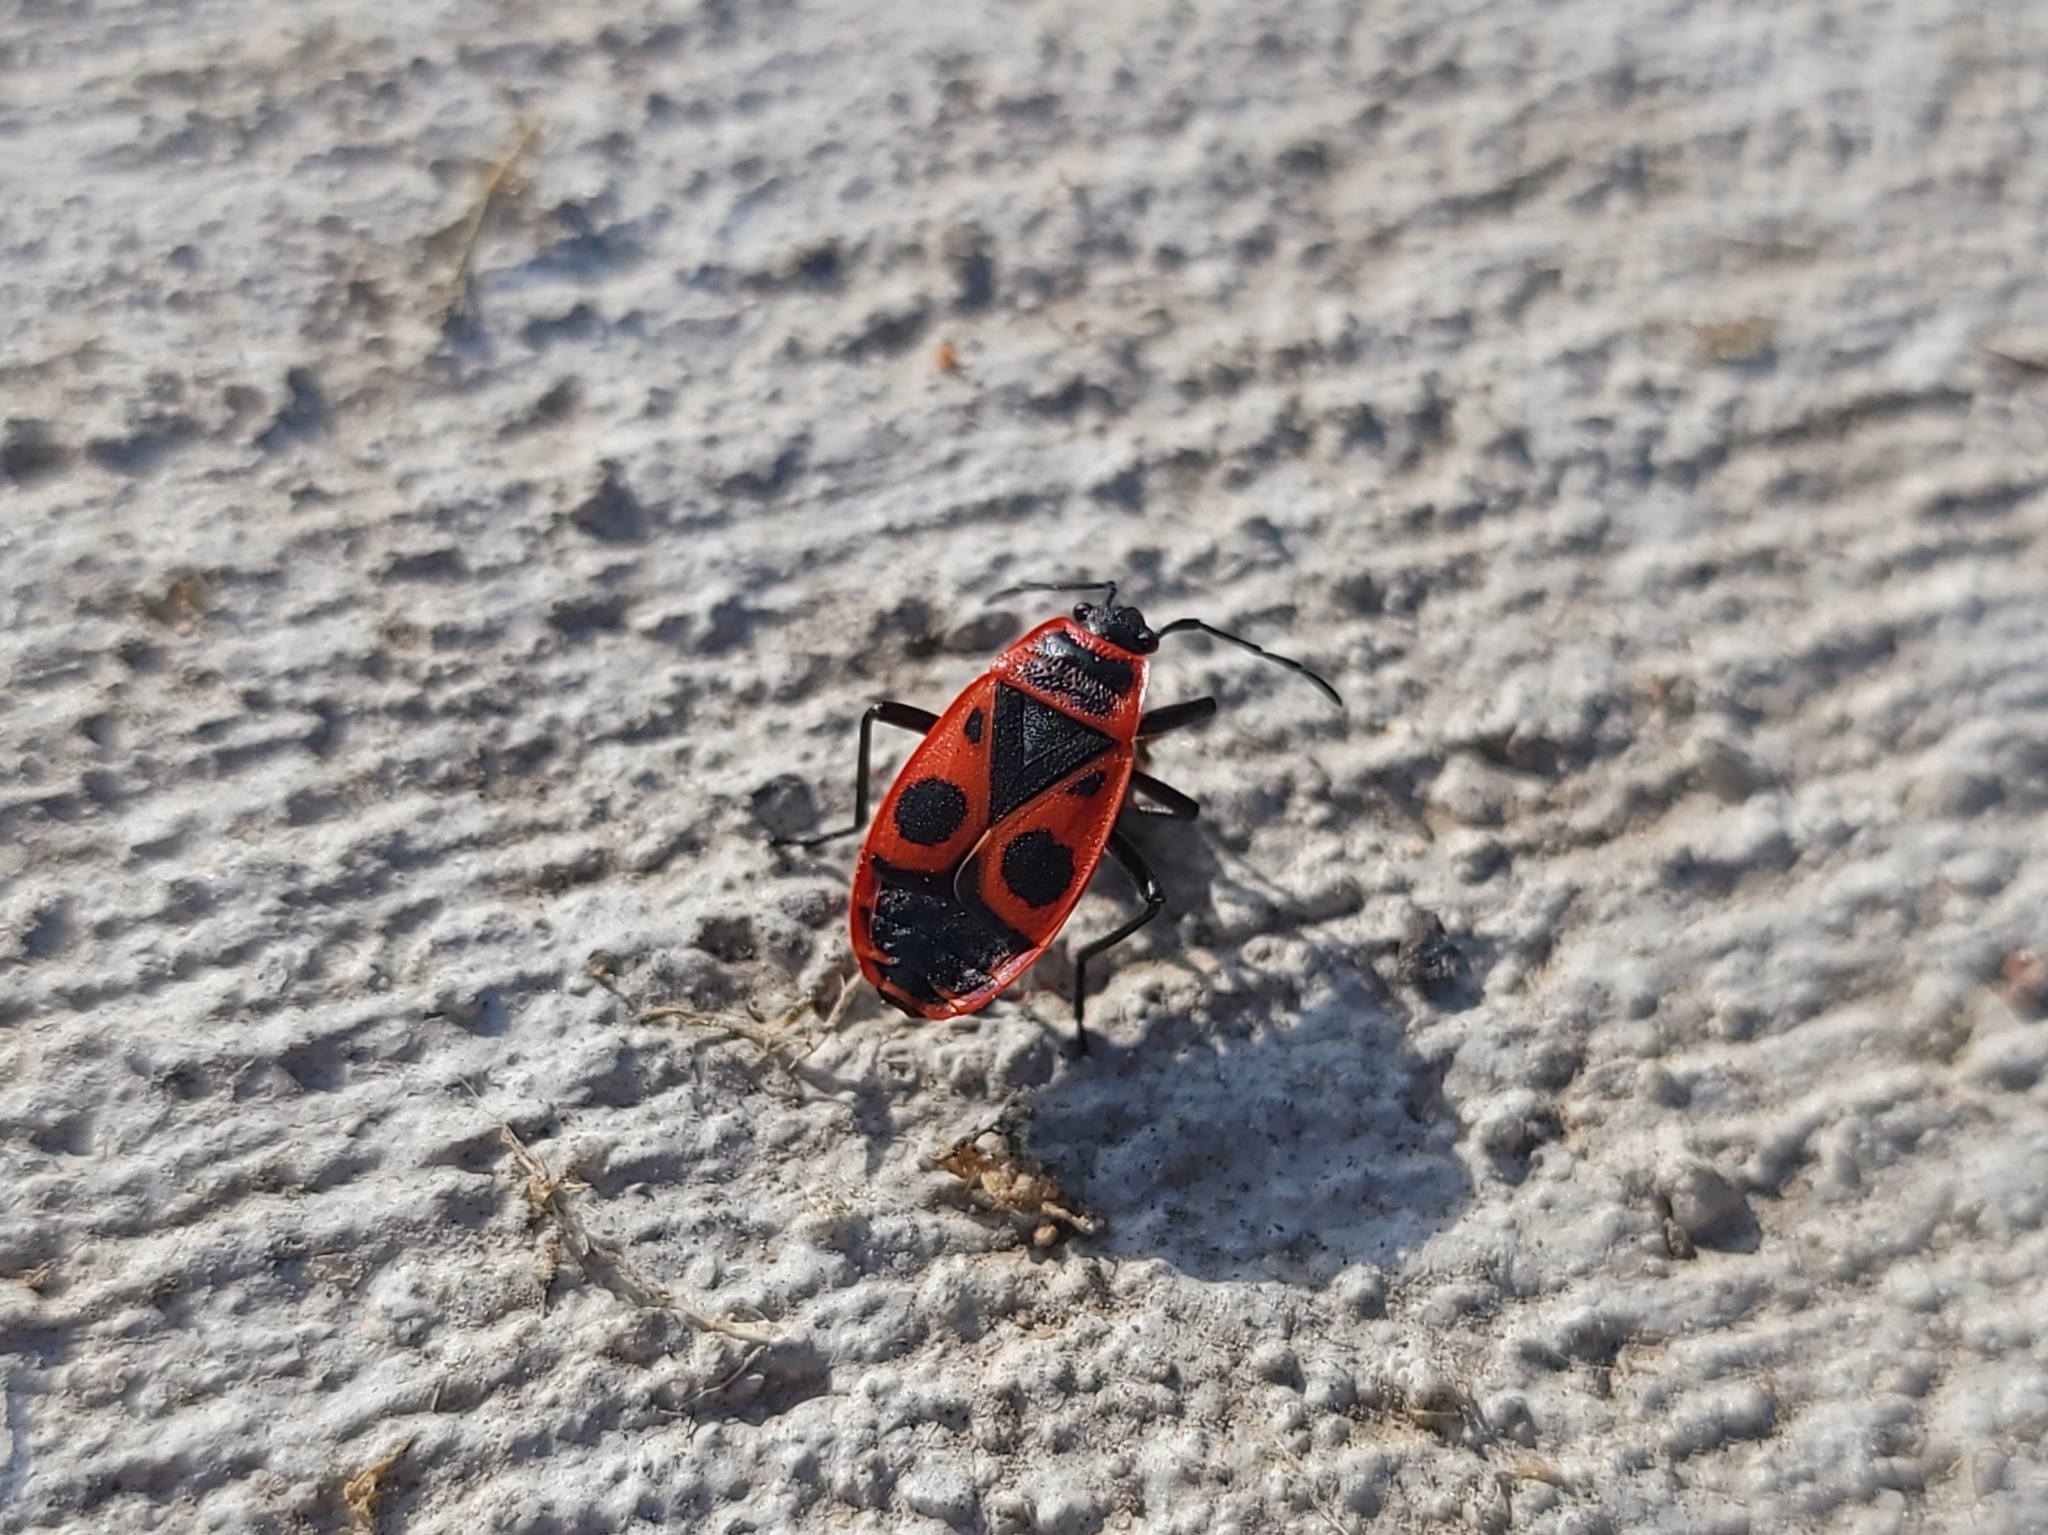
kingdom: Animalia
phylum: Arthropoda
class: Insecta
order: Hemiptera
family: Pyrrhocoridae
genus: Pyrrhocoris
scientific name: Pyrrhocoris apterus
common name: Firebug
